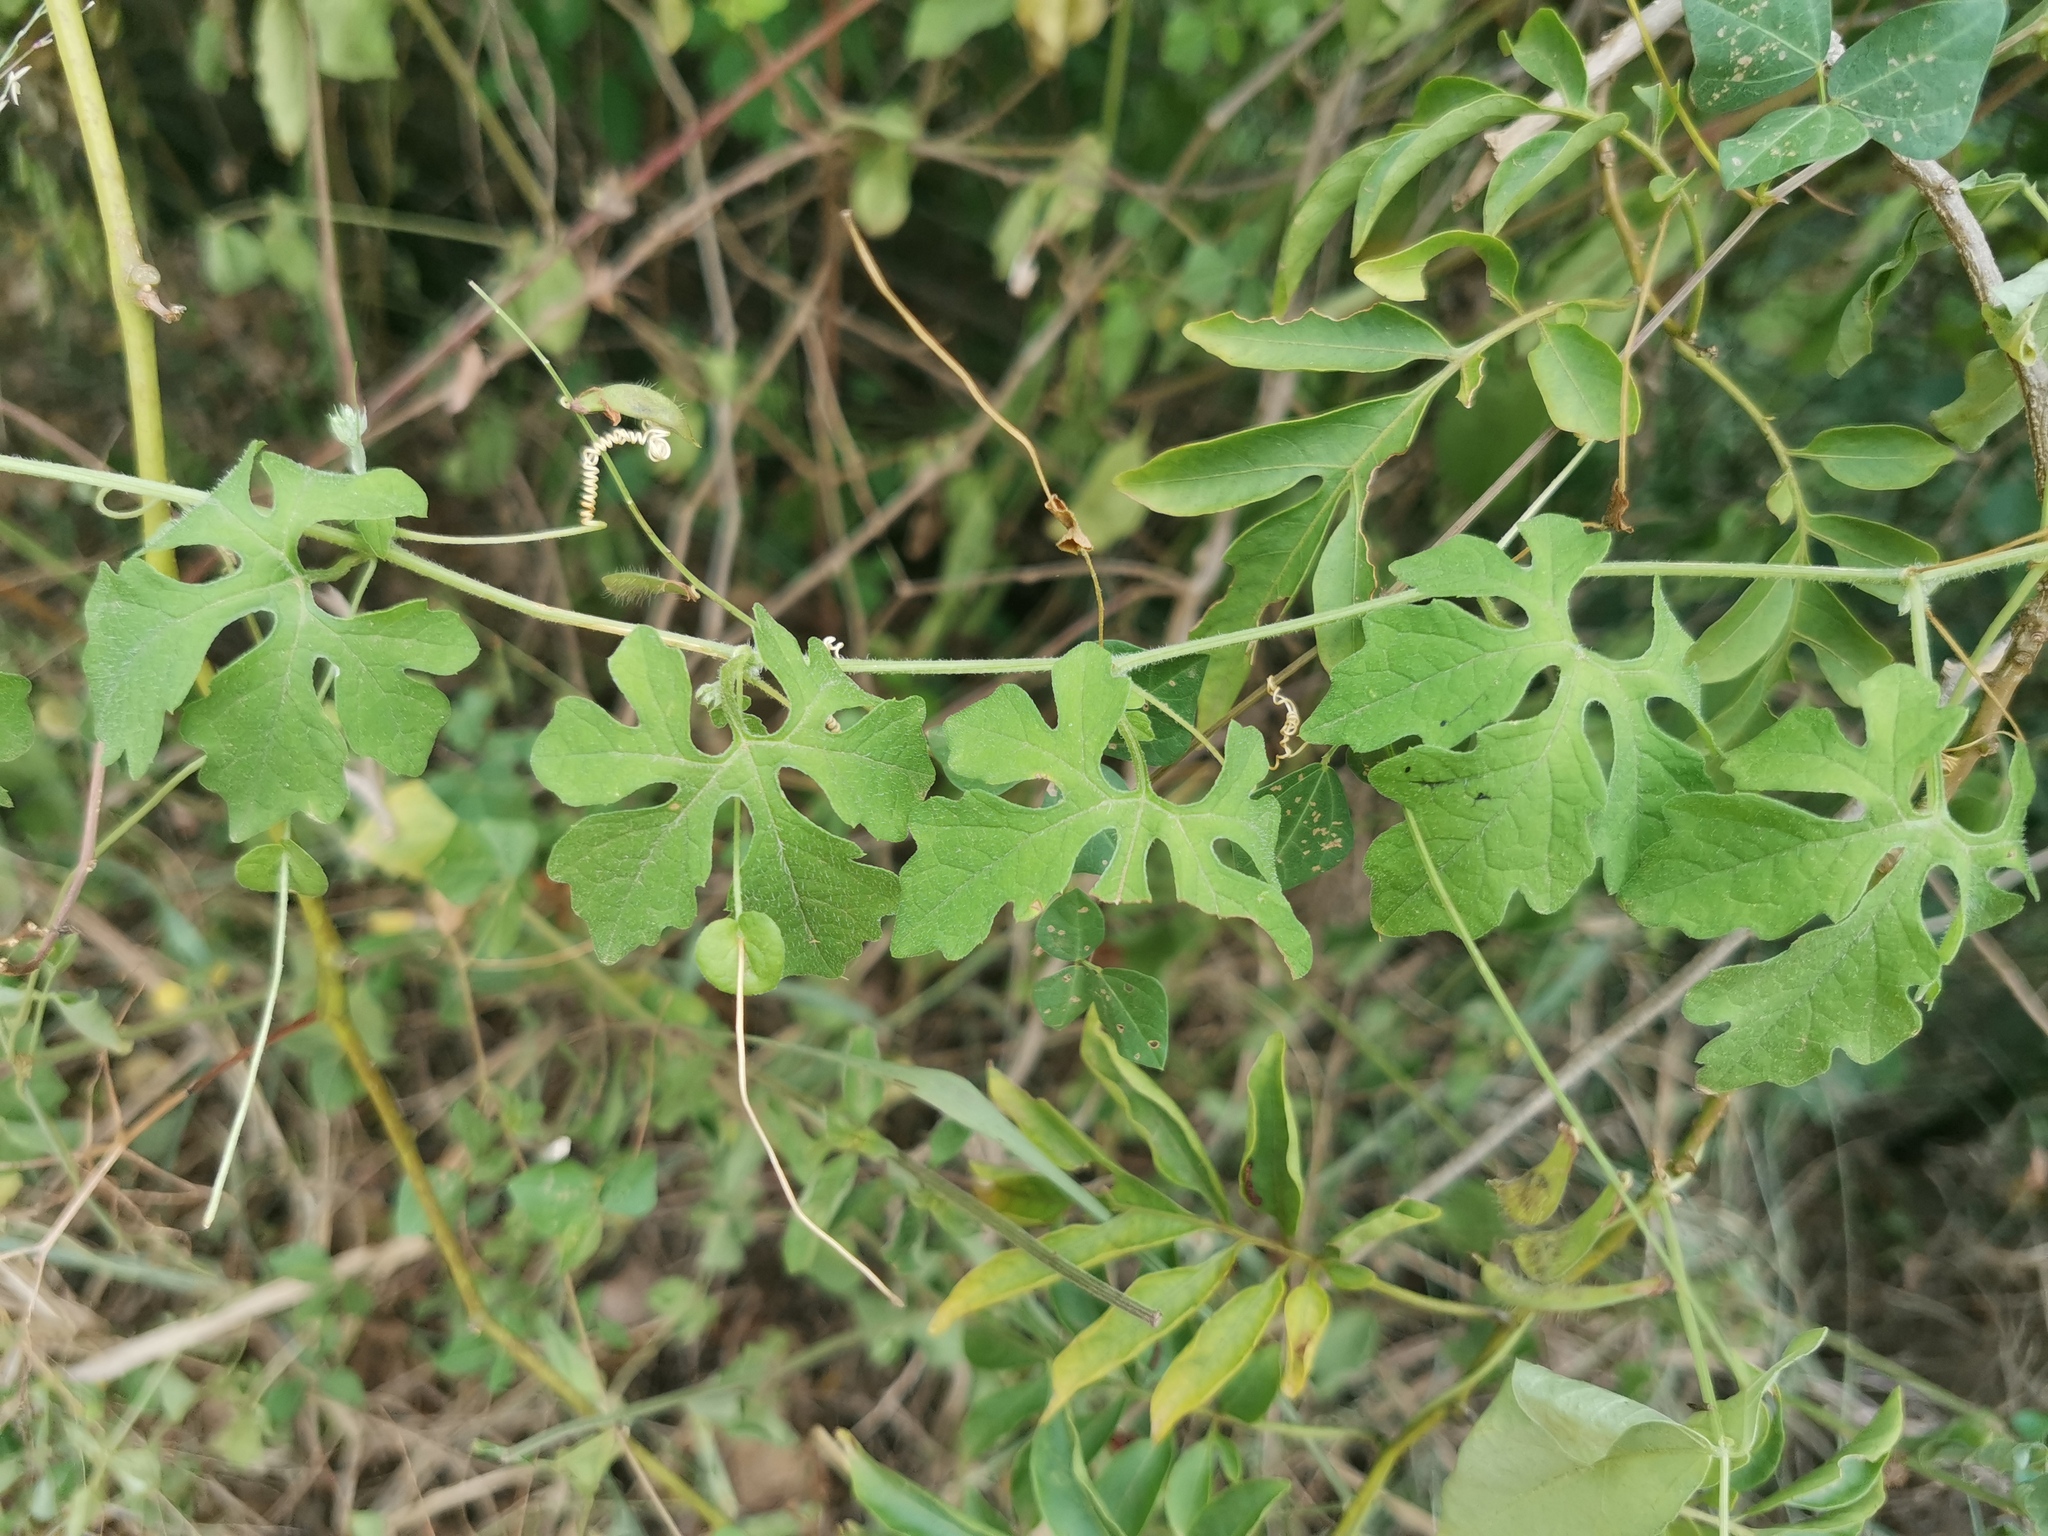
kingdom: Plantae
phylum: Tracheophyta
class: Magnoliopsida
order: Cucurbitales
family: Cucurbitaceae
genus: Momordica
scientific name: Momordica charantia
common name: Balsampear
